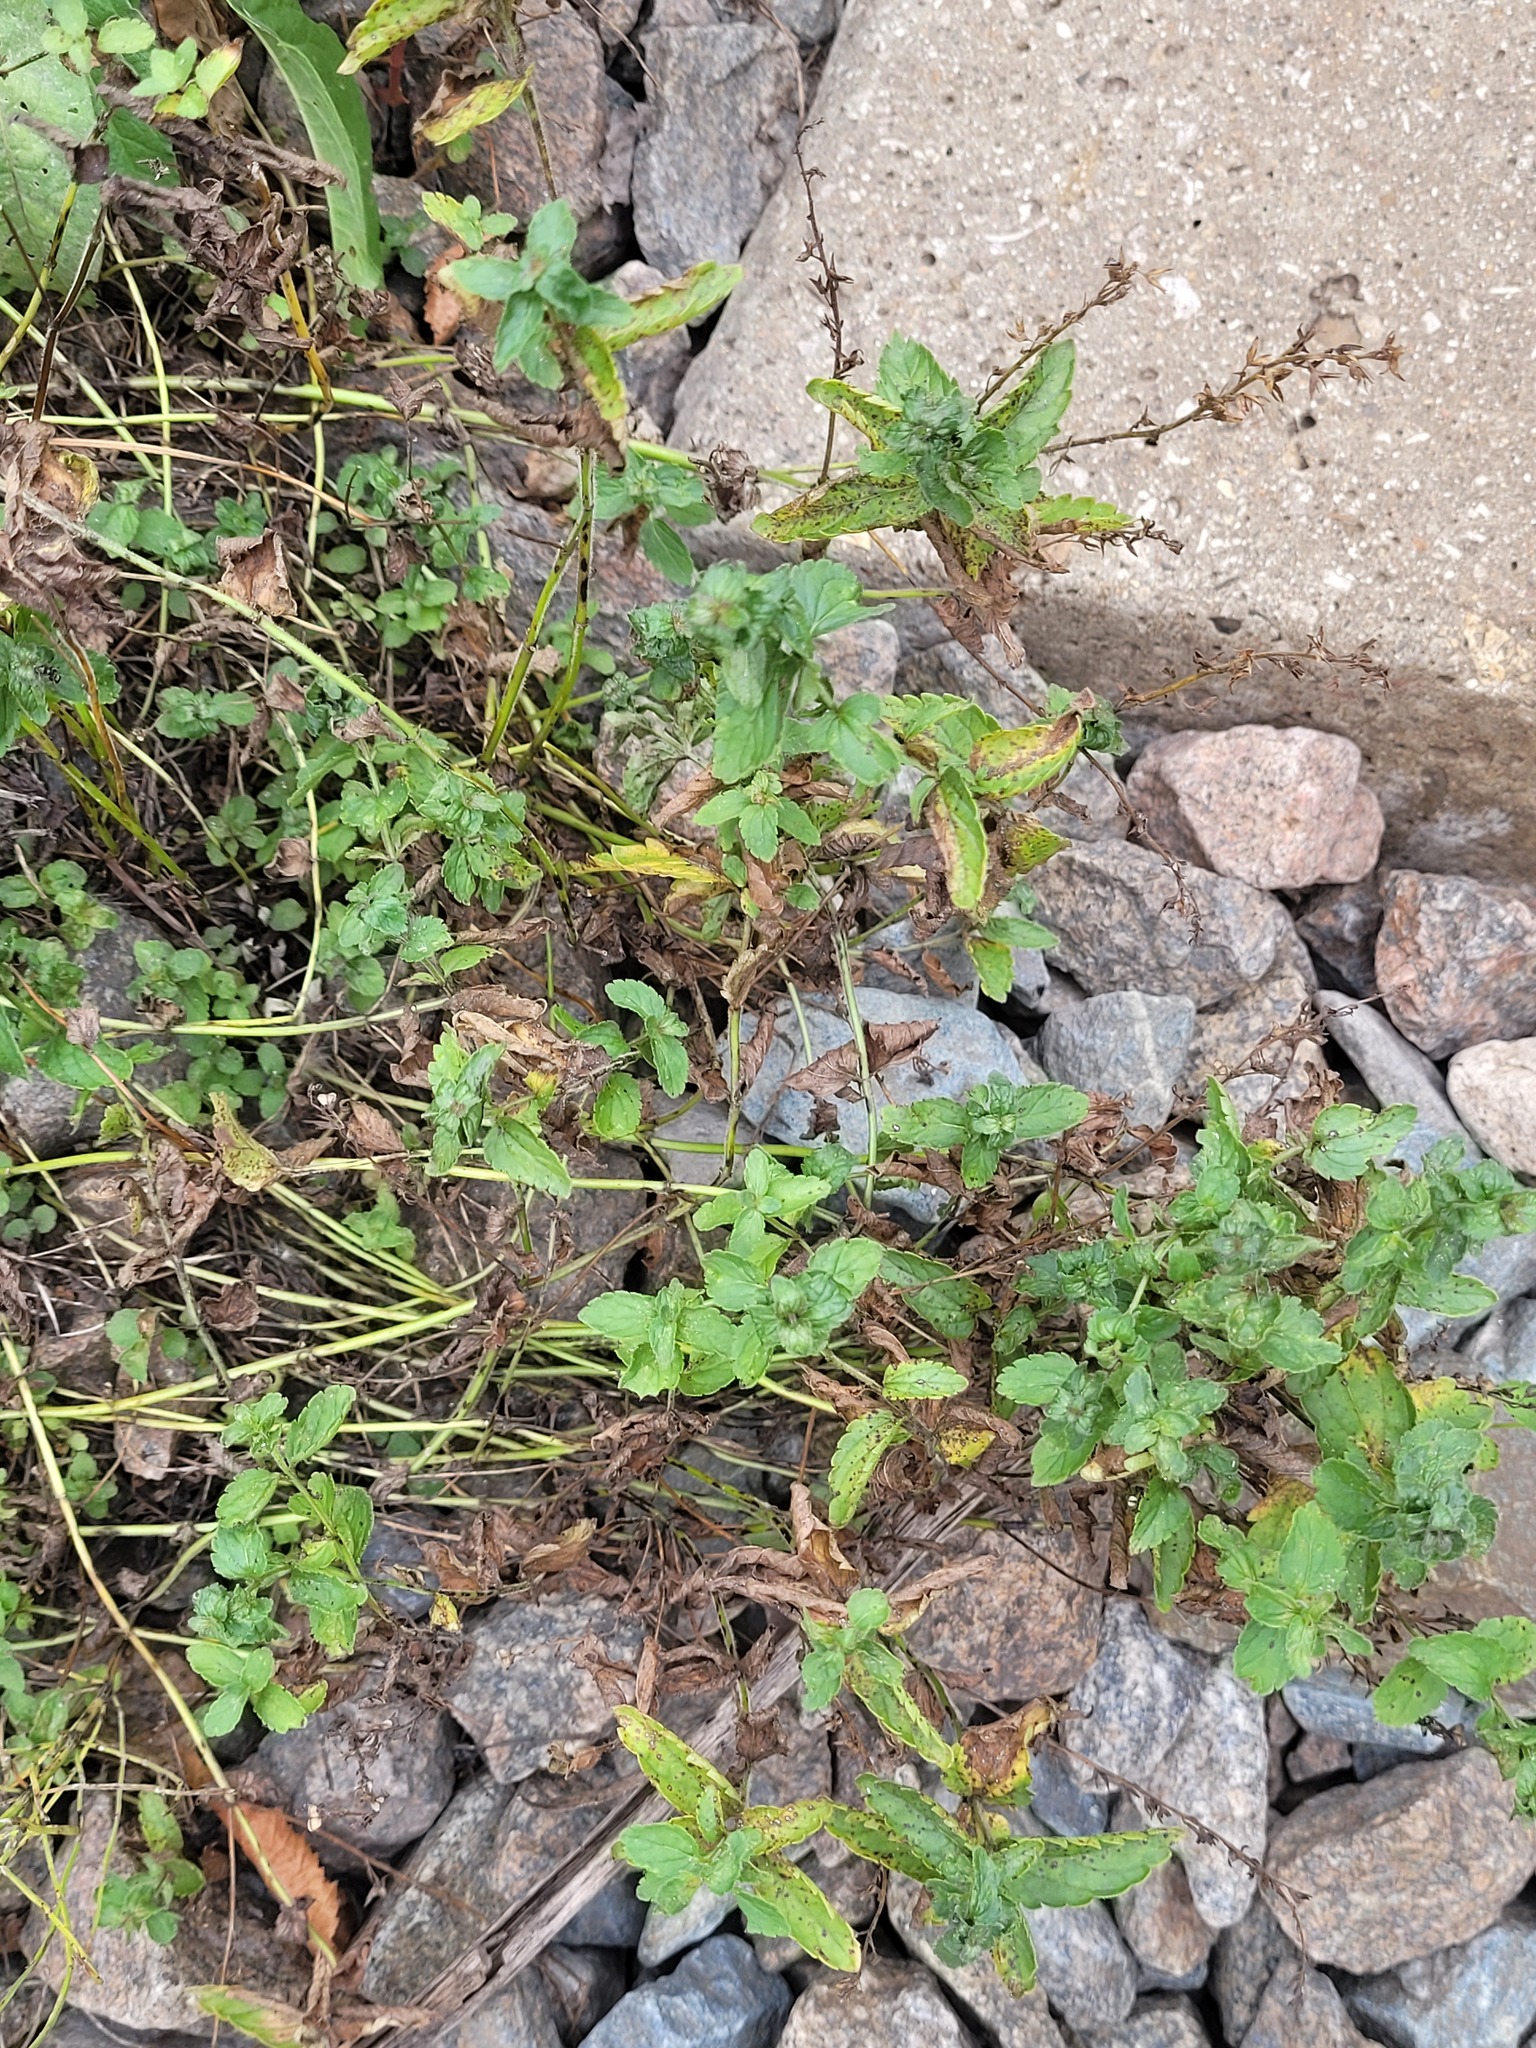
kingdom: Plantae
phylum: Tracheophyta
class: Magnoliopsida
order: Lamiales
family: Plantaginaceae
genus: Veronica
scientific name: Veronica chamaedrys
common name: Germander speedwell
